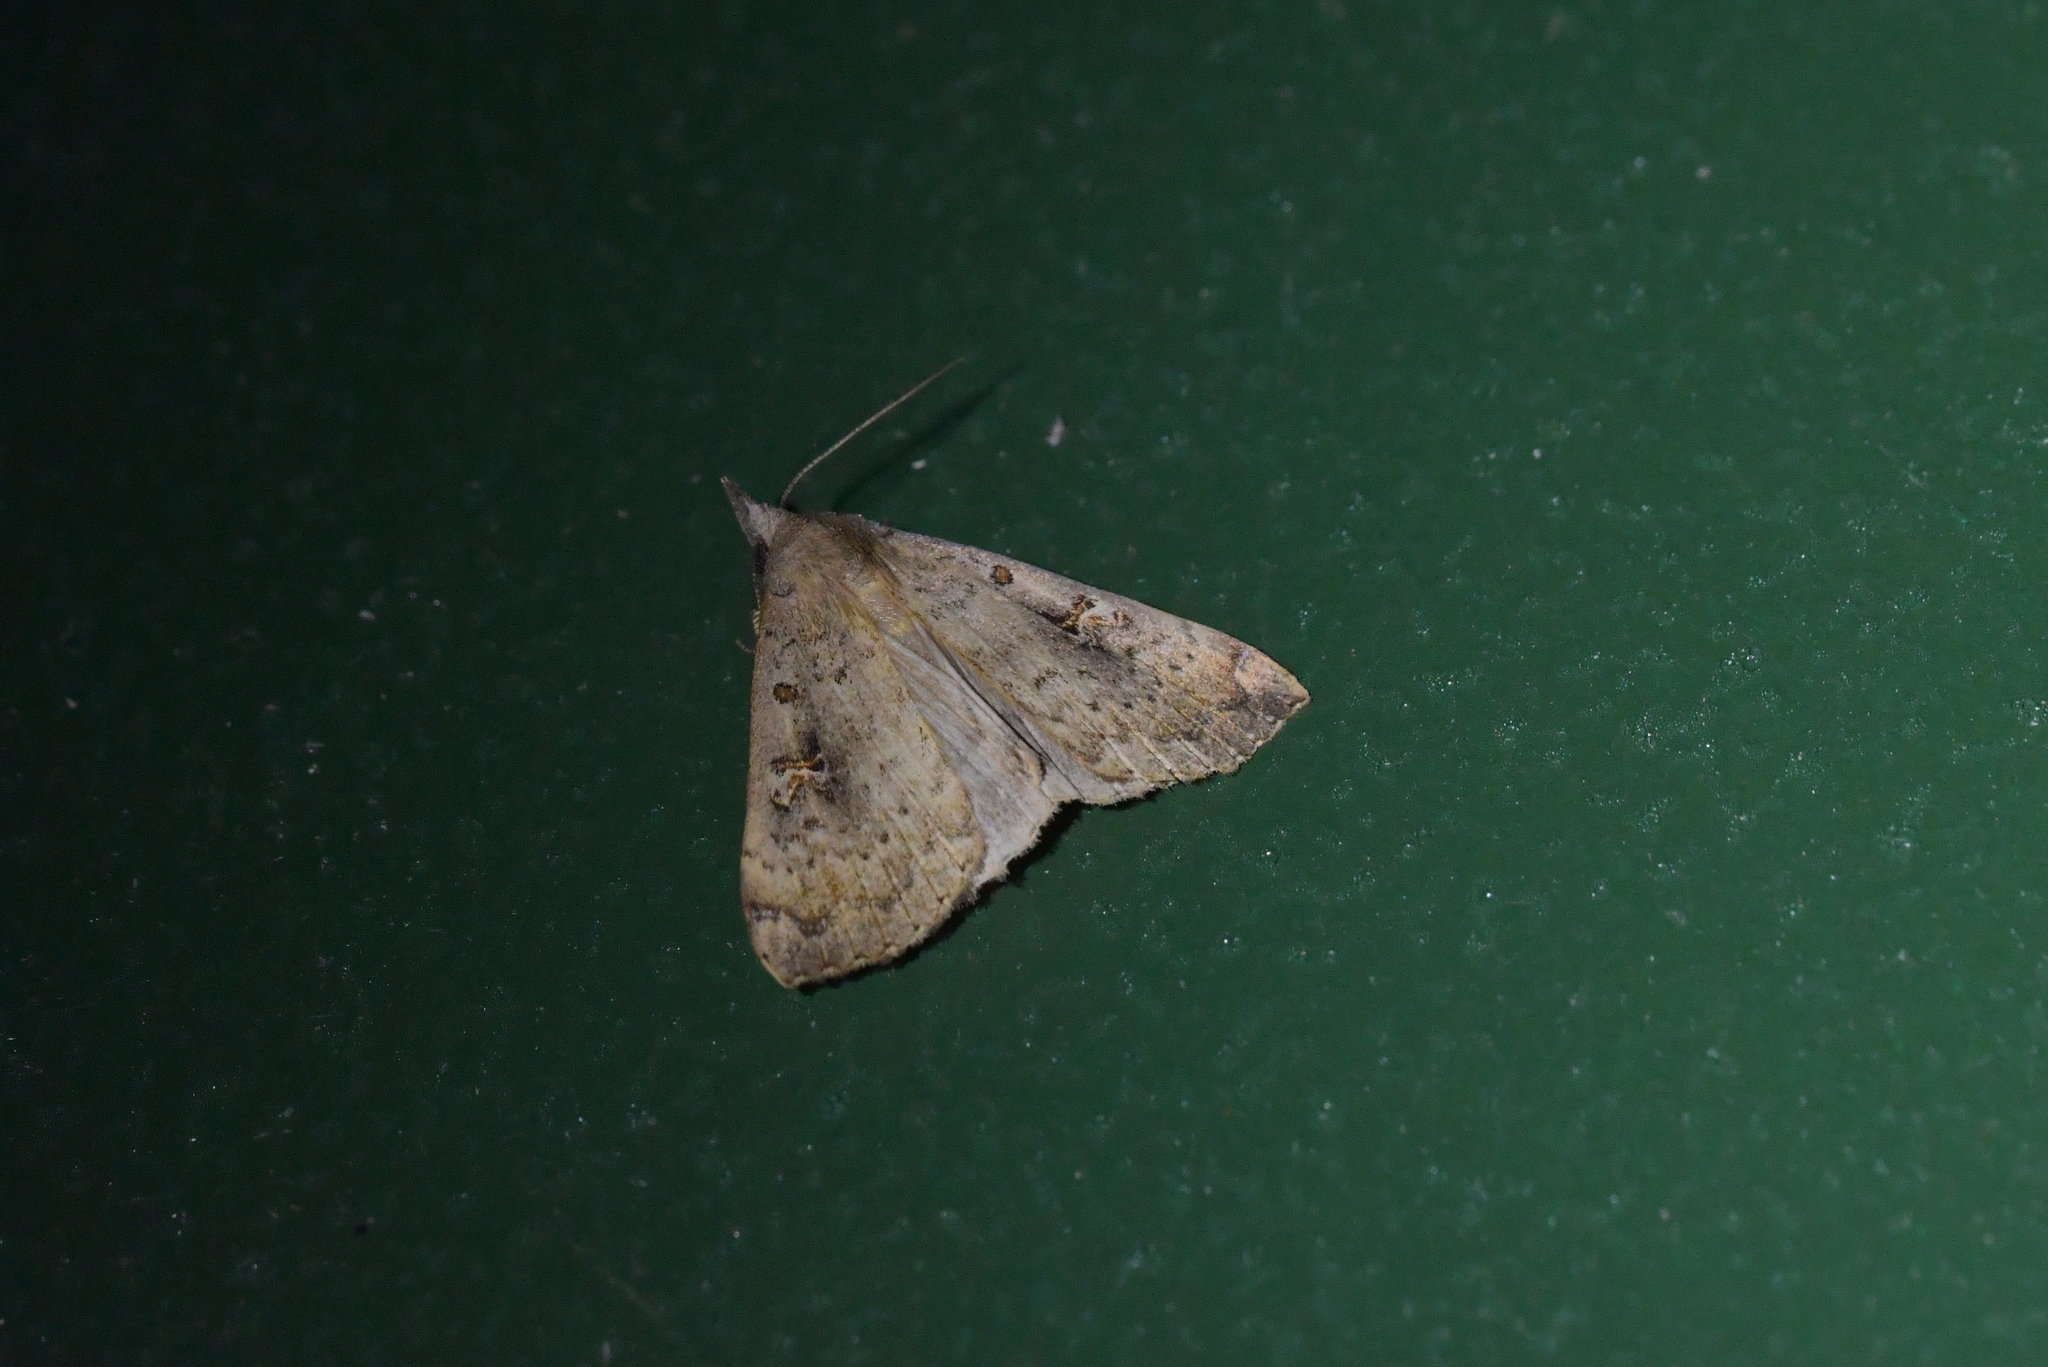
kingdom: Animalia
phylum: Arthropoda
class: Insecta
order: Lepidoptera
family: Erebidae
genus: Rhapsa
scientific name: Rhapsa scotosialis
